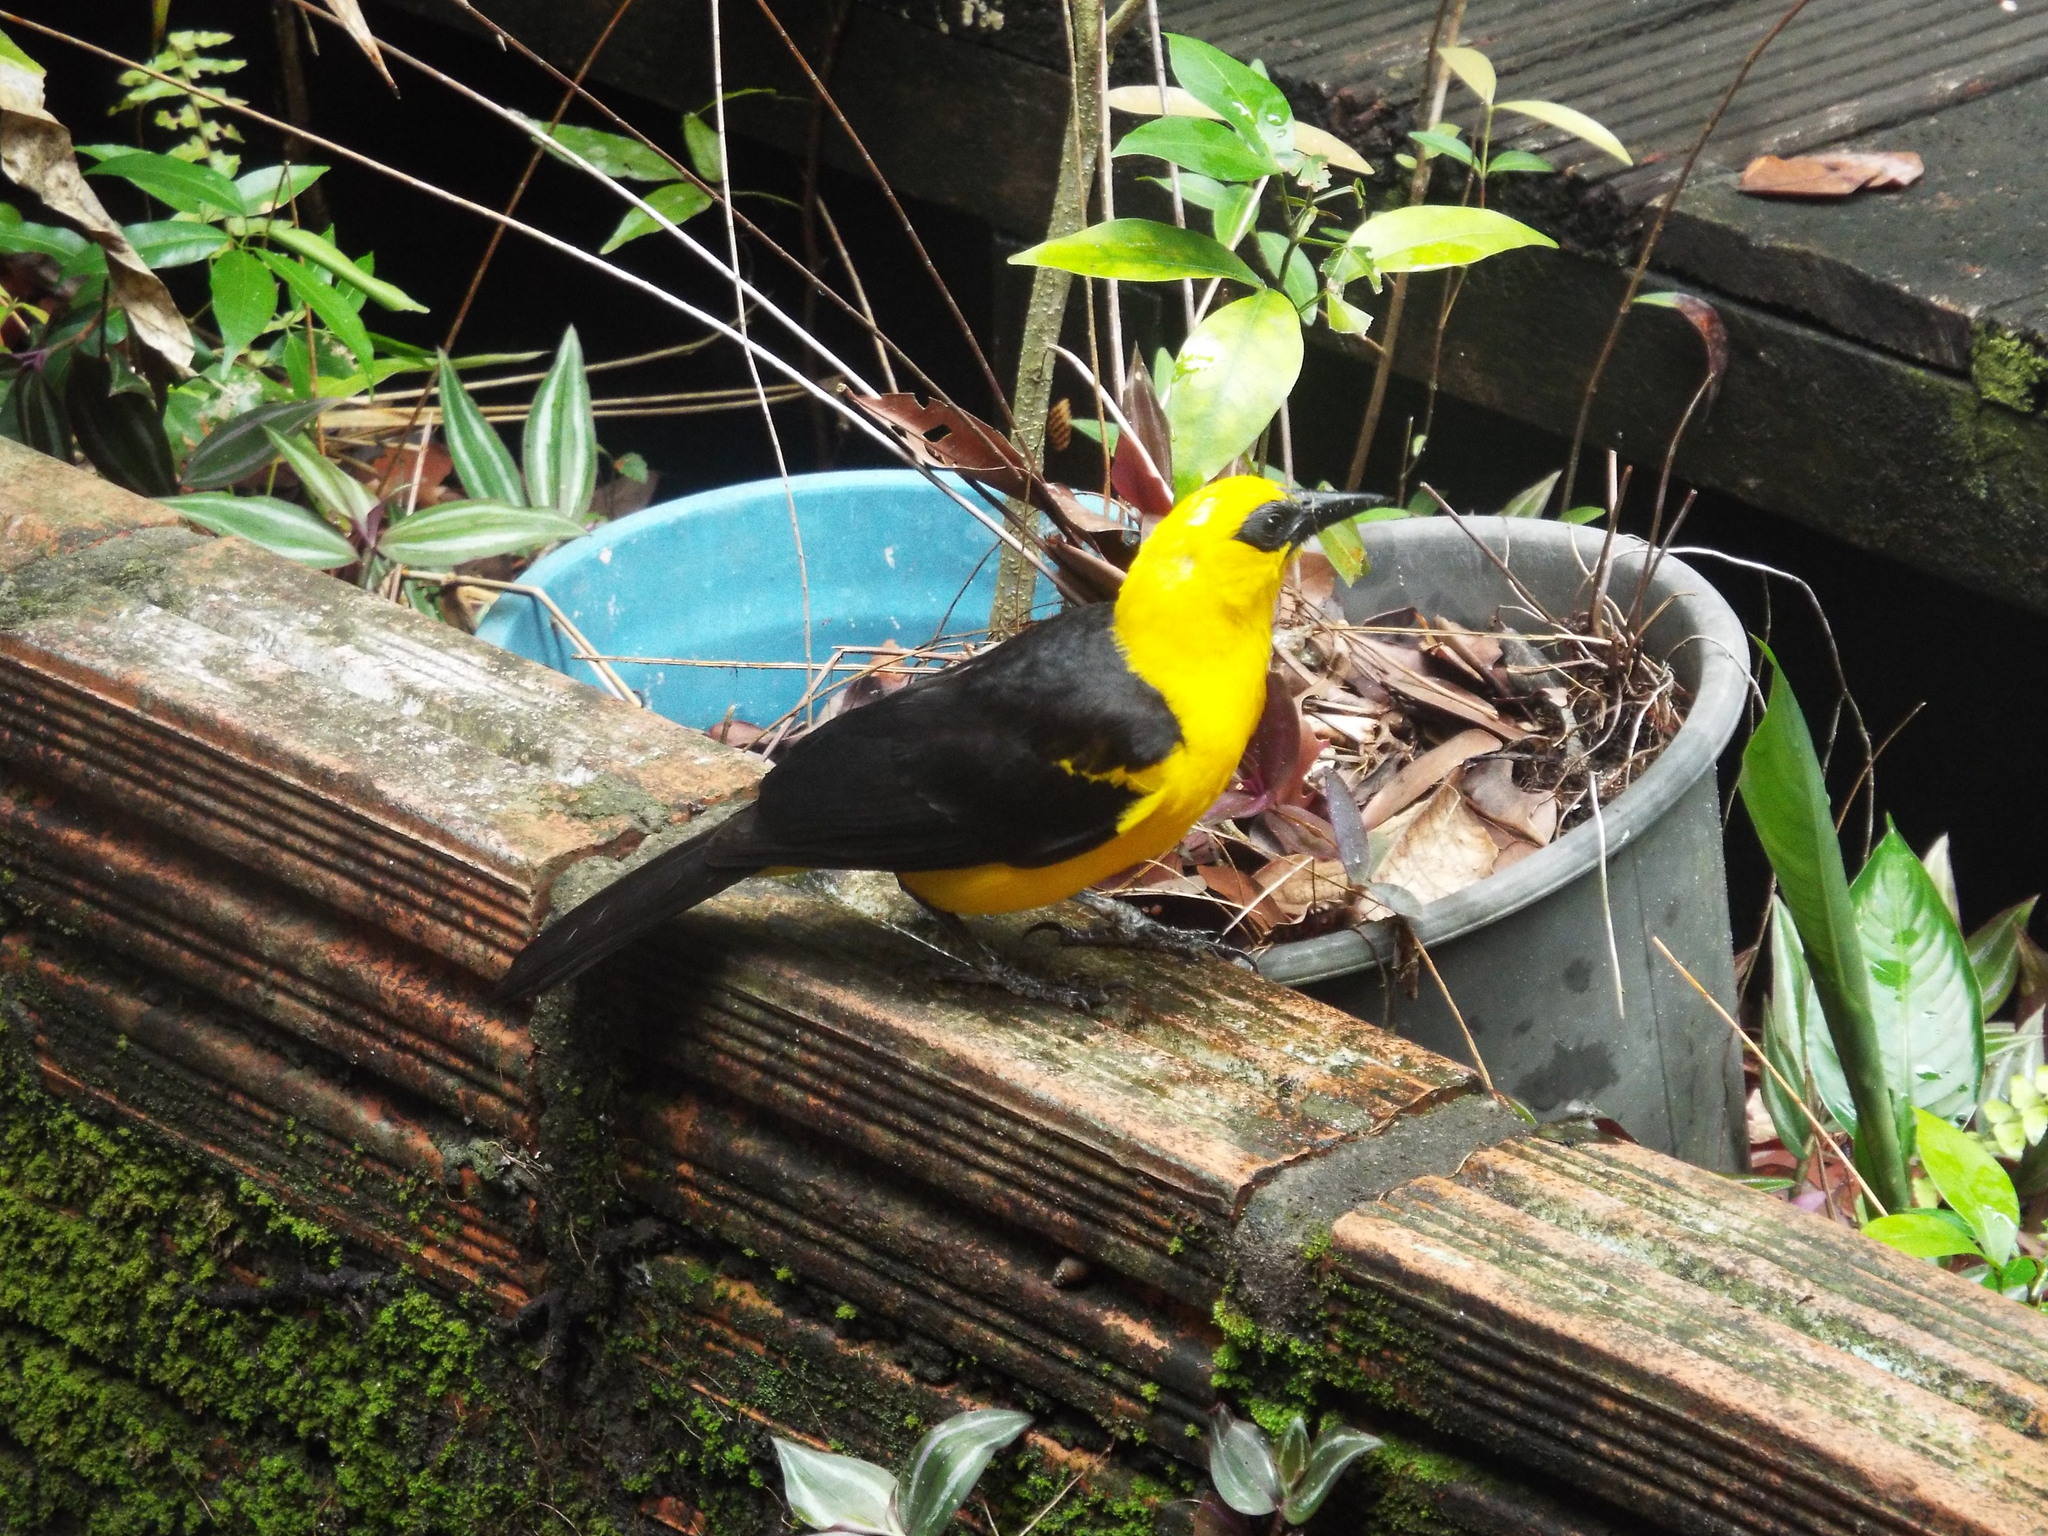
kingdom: Animalia
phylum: Chordata
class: Aves
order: Passeriformes
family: Icteridae
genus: Gymnomystax
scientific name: Gymnomystax mexicanus
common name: Oriole blackbird
